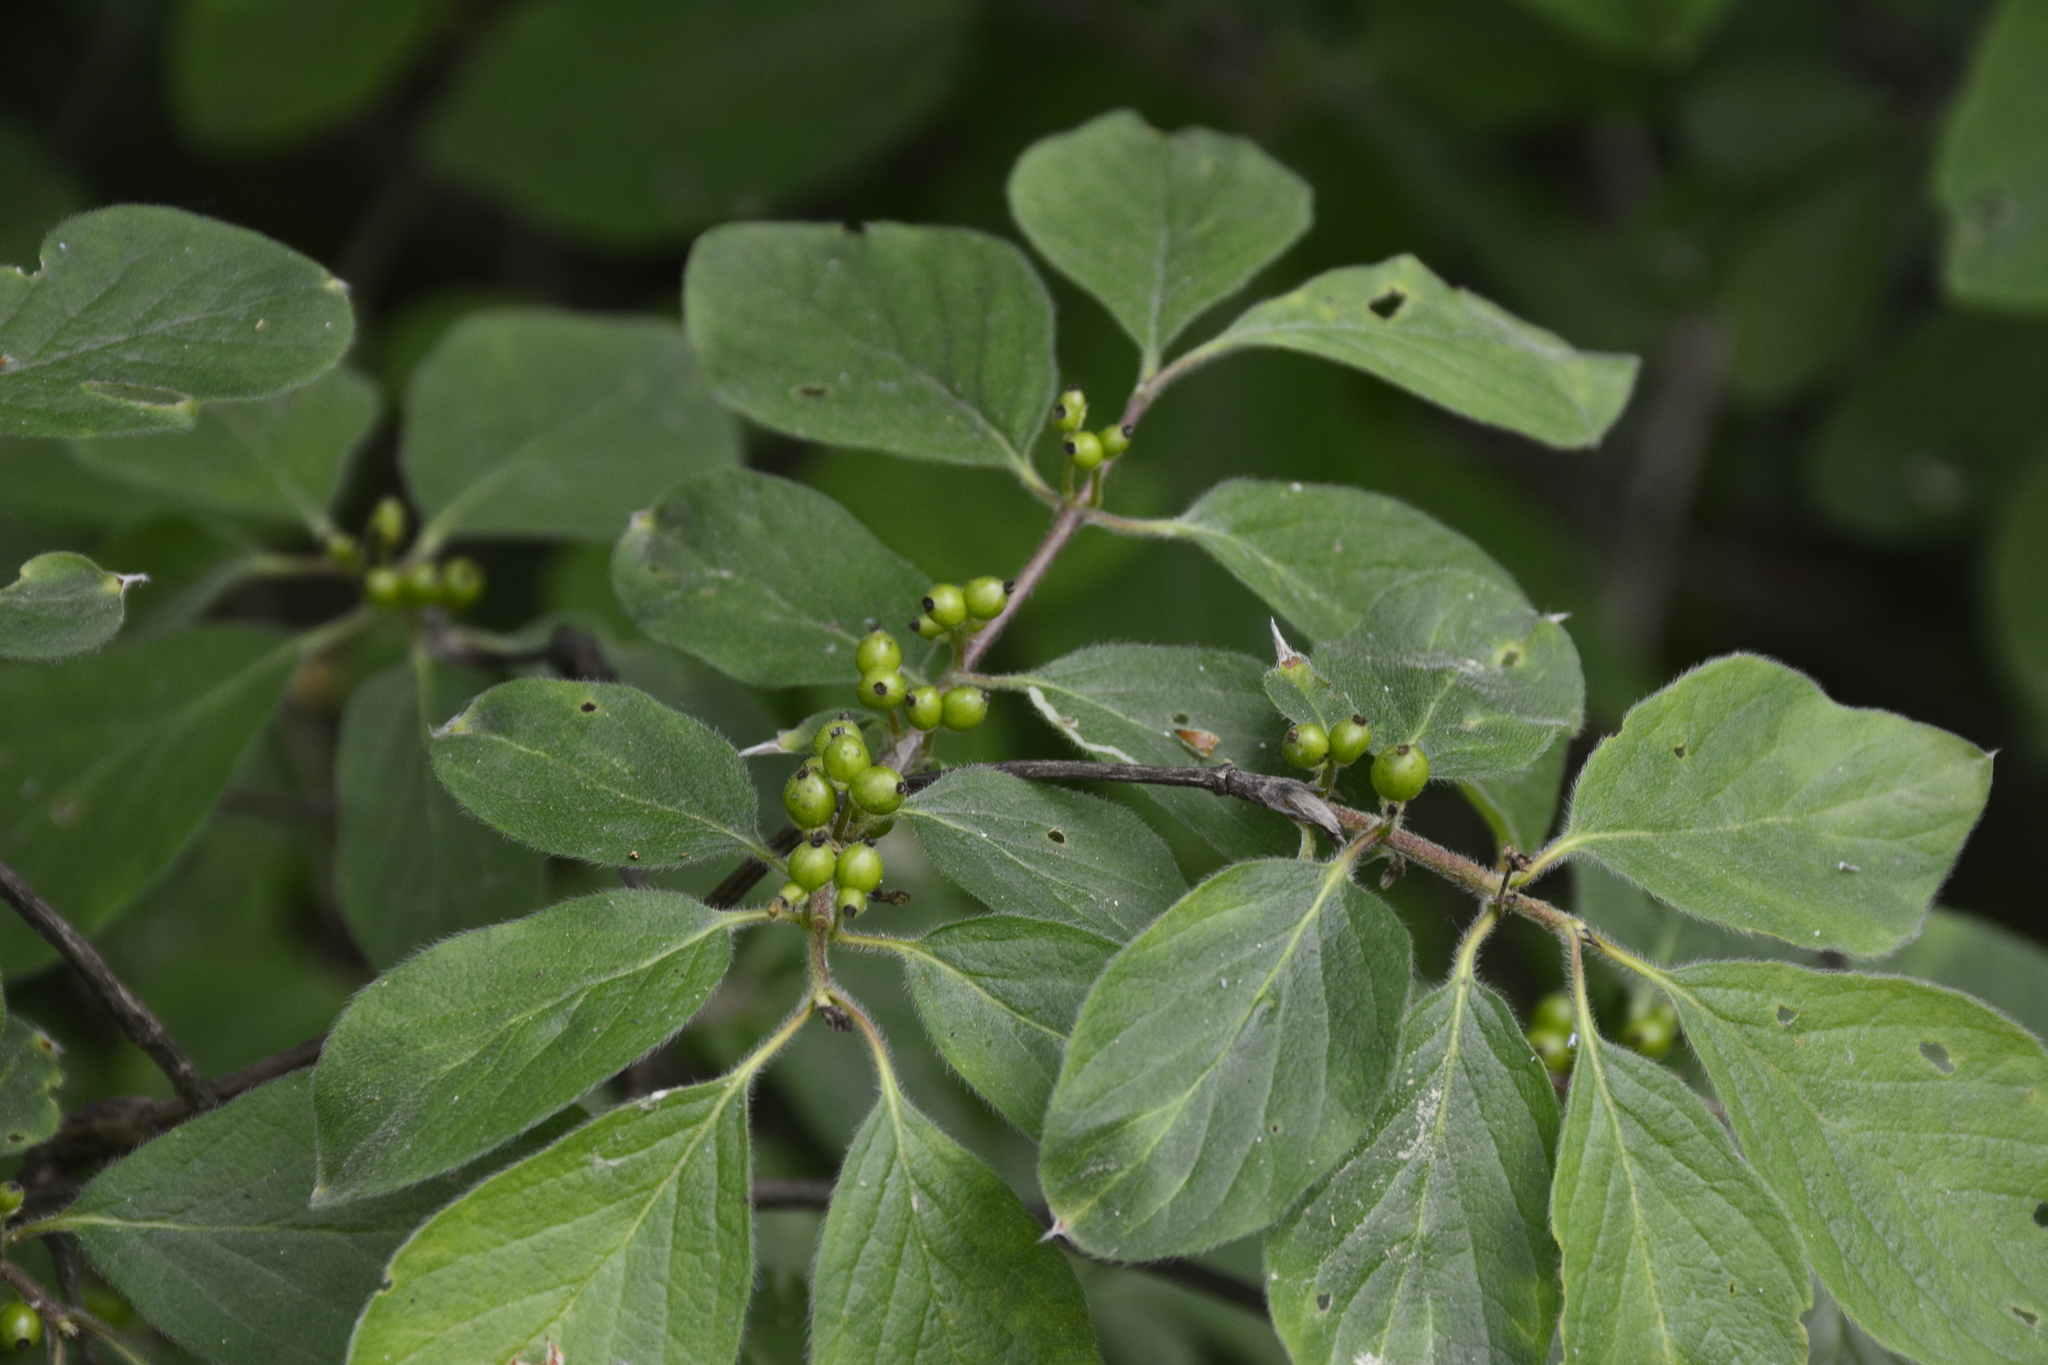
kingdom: Plantae
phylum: Tracheophyta
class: Magnoliopsida
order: Dipsacales
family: Caprifoliaceae
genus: Lonicera
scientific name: Lonicera xylosteum
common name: Fly honeysuckle
